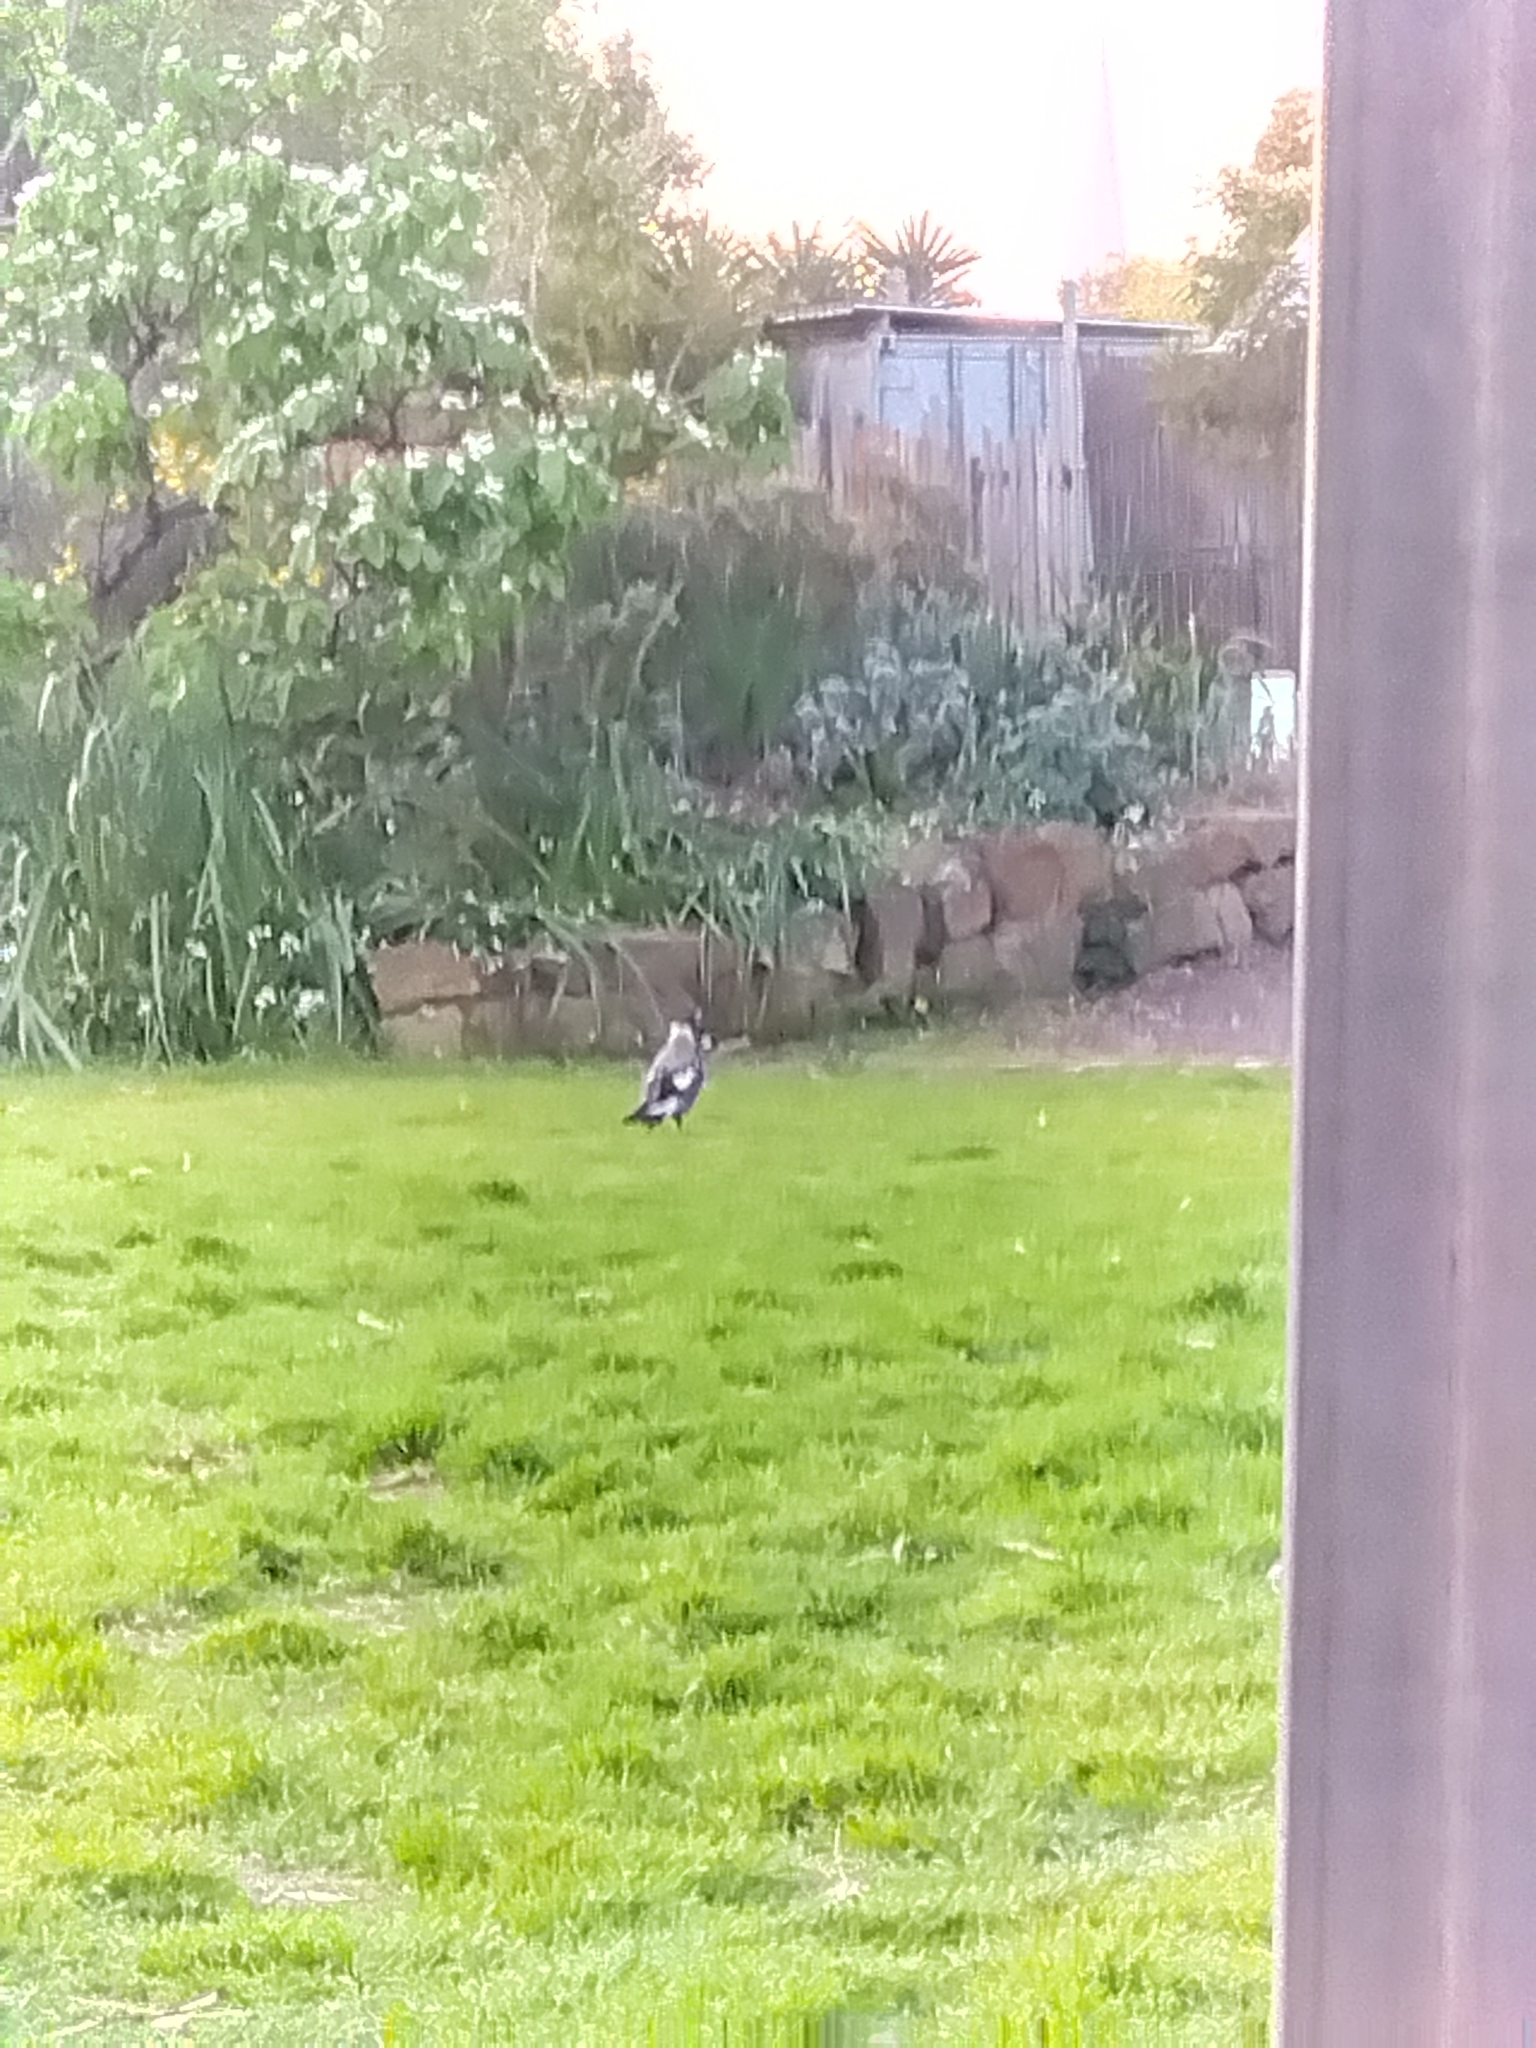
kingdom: Animalia
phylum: Chordata
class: Aves
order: Passeriformes
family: Cracticidae
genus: Gymnorhina
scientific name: Gymnorhina tibicen
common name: Australian magpie
